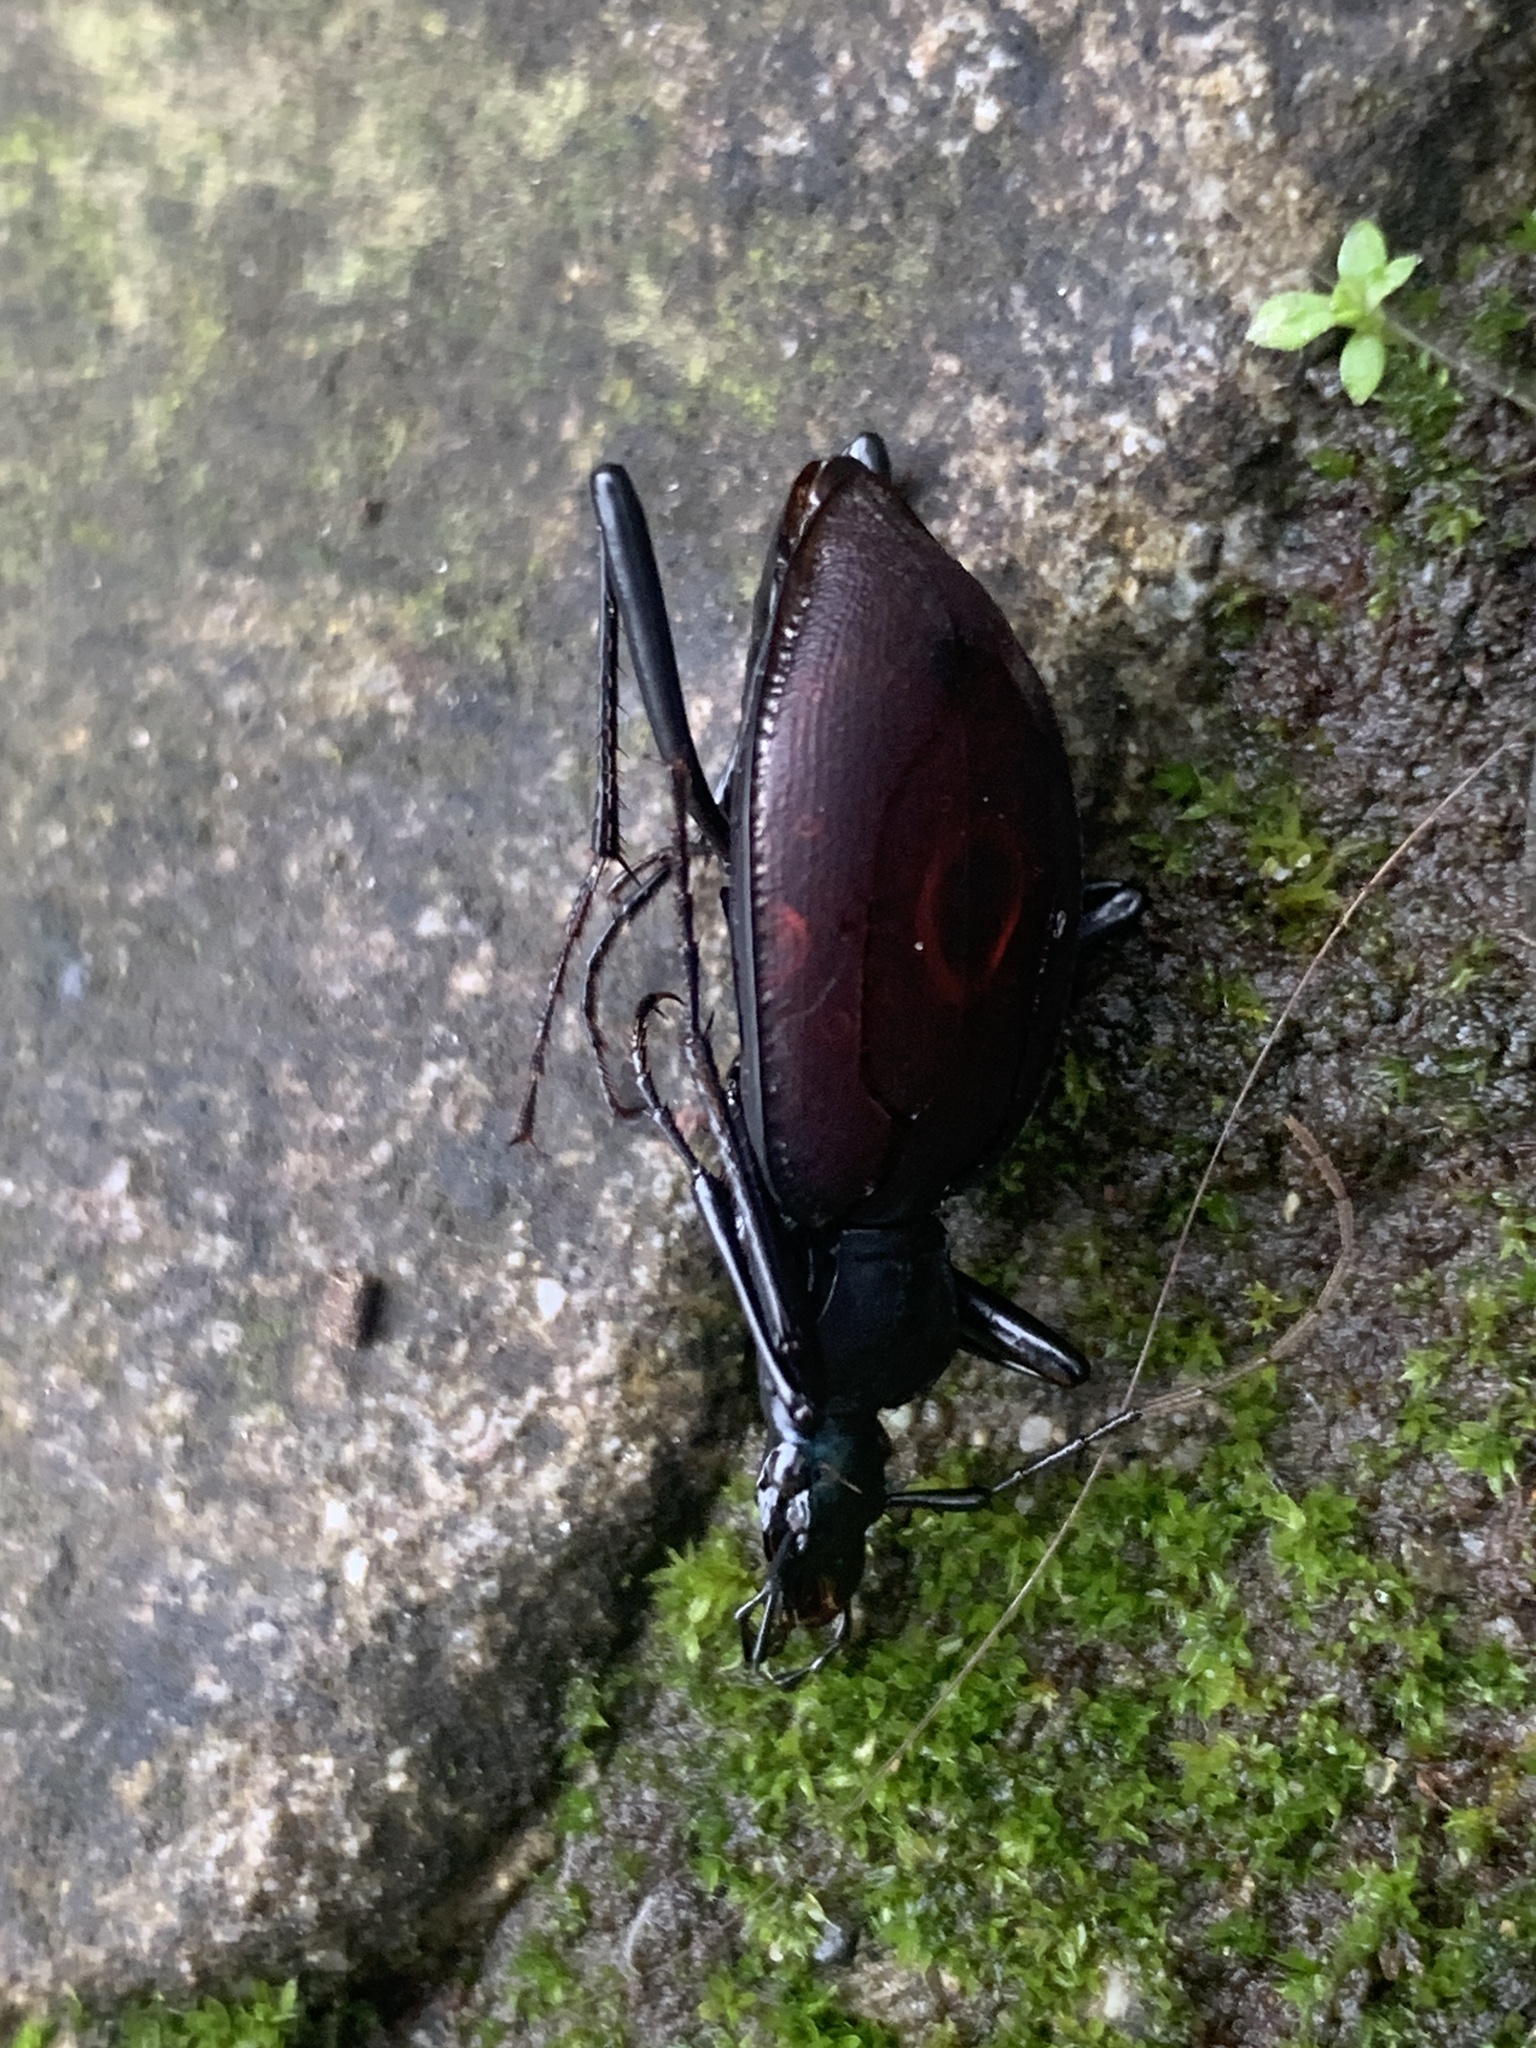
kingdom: Animalia
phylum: Arthropoda
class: Insecta
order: Coleoptera
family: Carabidae
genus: Scaphinotus
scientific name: Scaphinotus angusticollis
